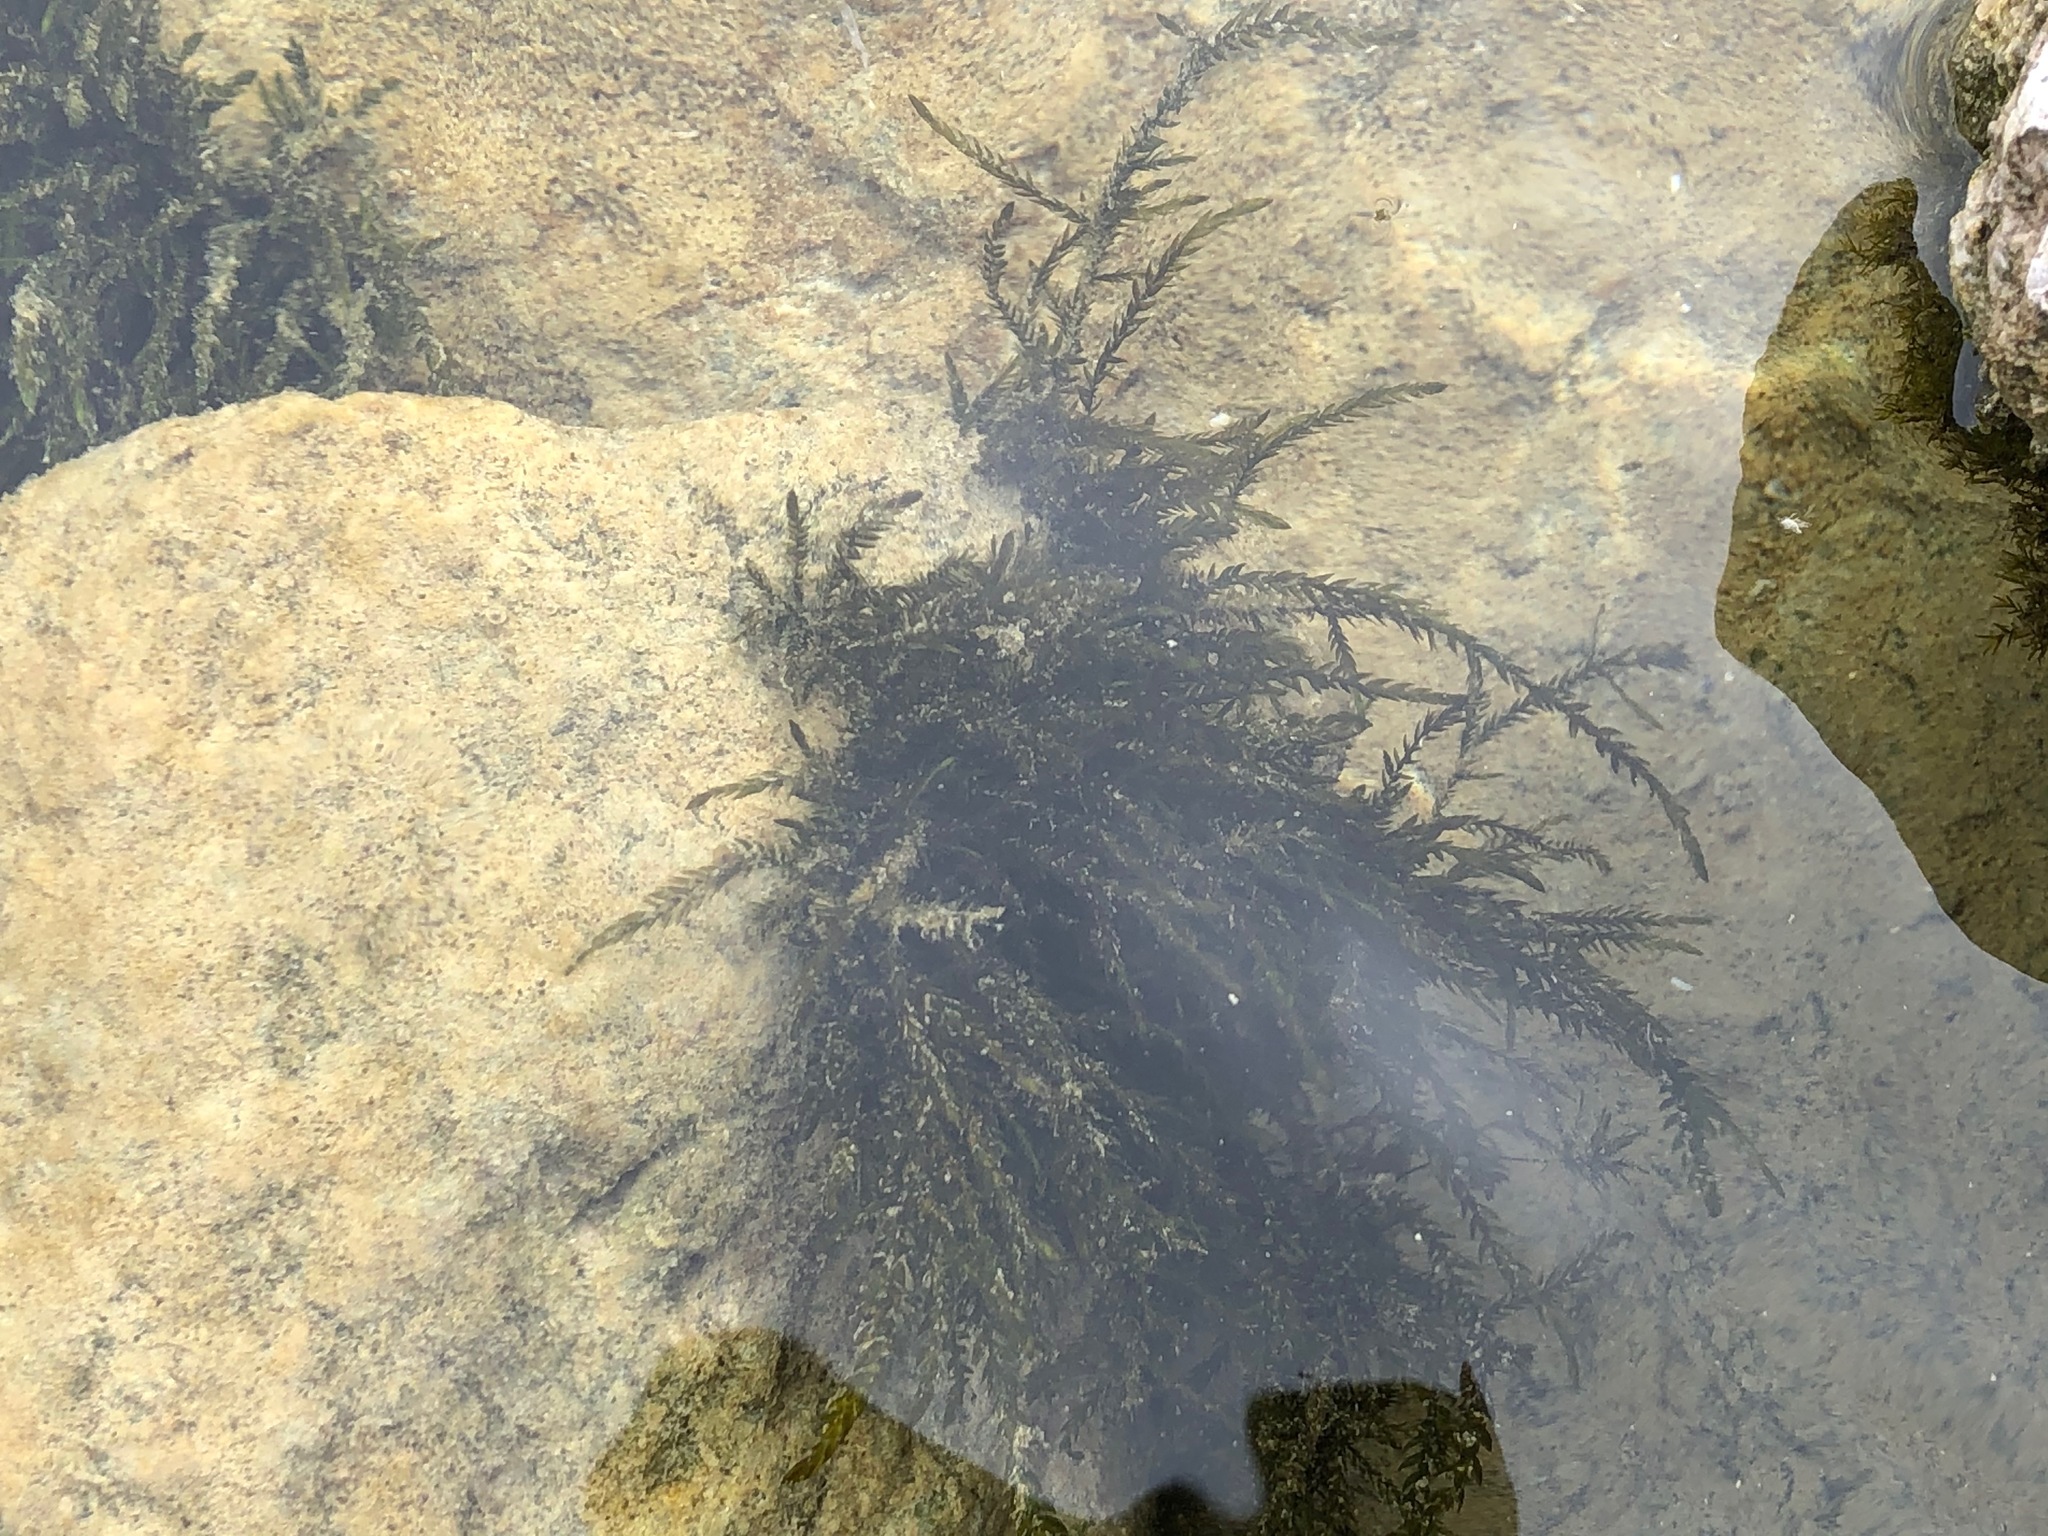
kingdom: Plantae
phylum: Bryophyta
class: Bryopsida
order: Hypnales
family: Fontinalaceae
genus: Fontinalis
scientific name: Fontinalis antipyretica
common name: Greater water-moss
